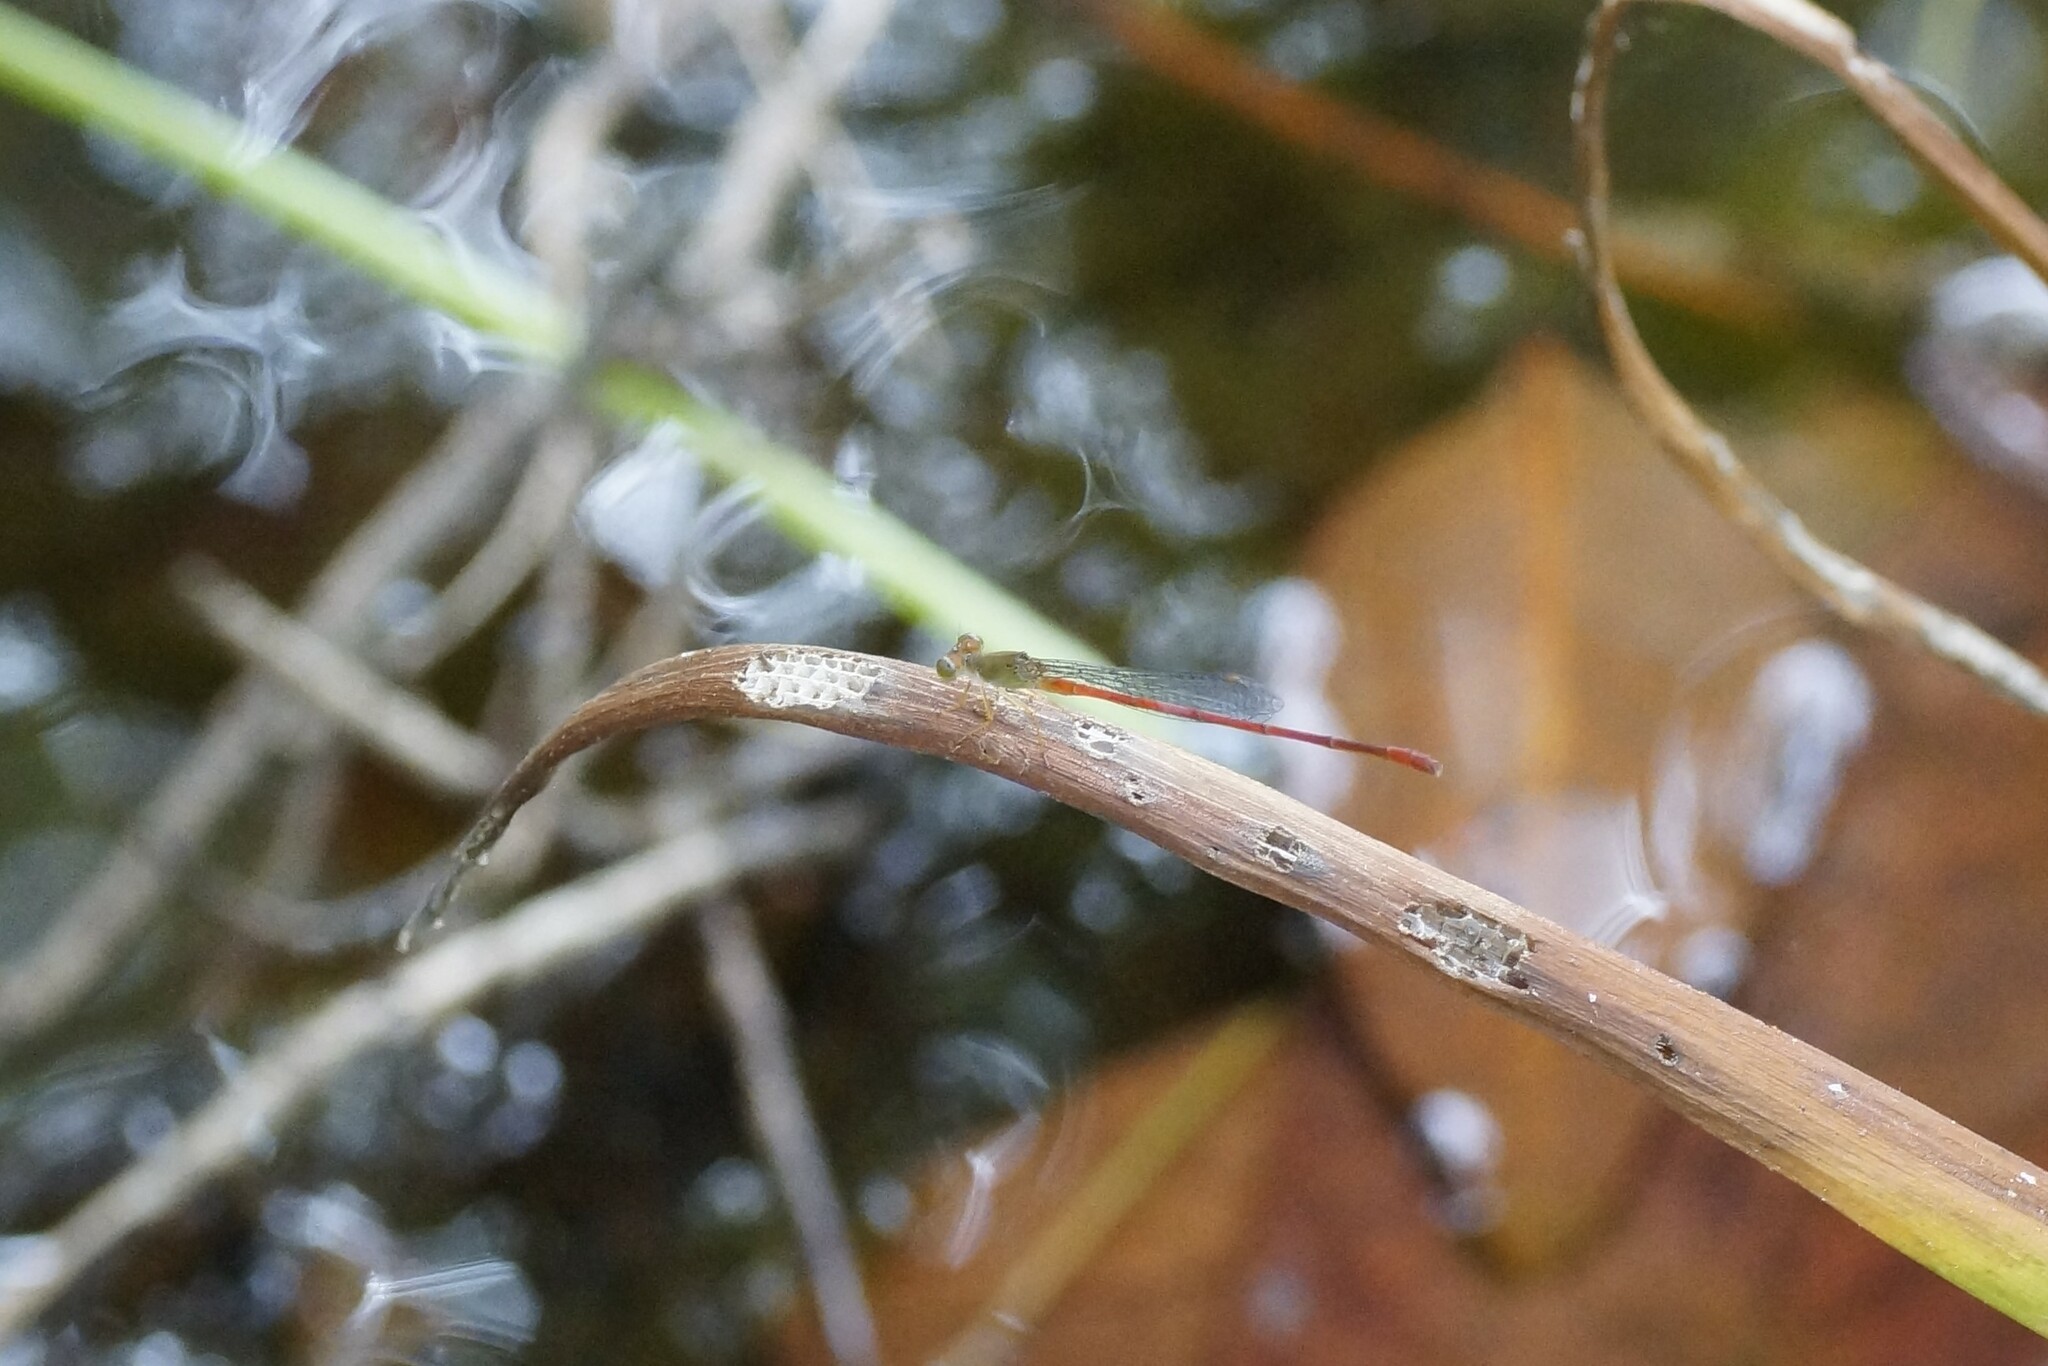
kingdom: Animalia
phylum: Arthropoda
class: Insecta
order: Odonata
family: Coenagrionidae
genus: Ceriagrion
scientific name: Ceriagrion aeruginosum
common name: Redtail
